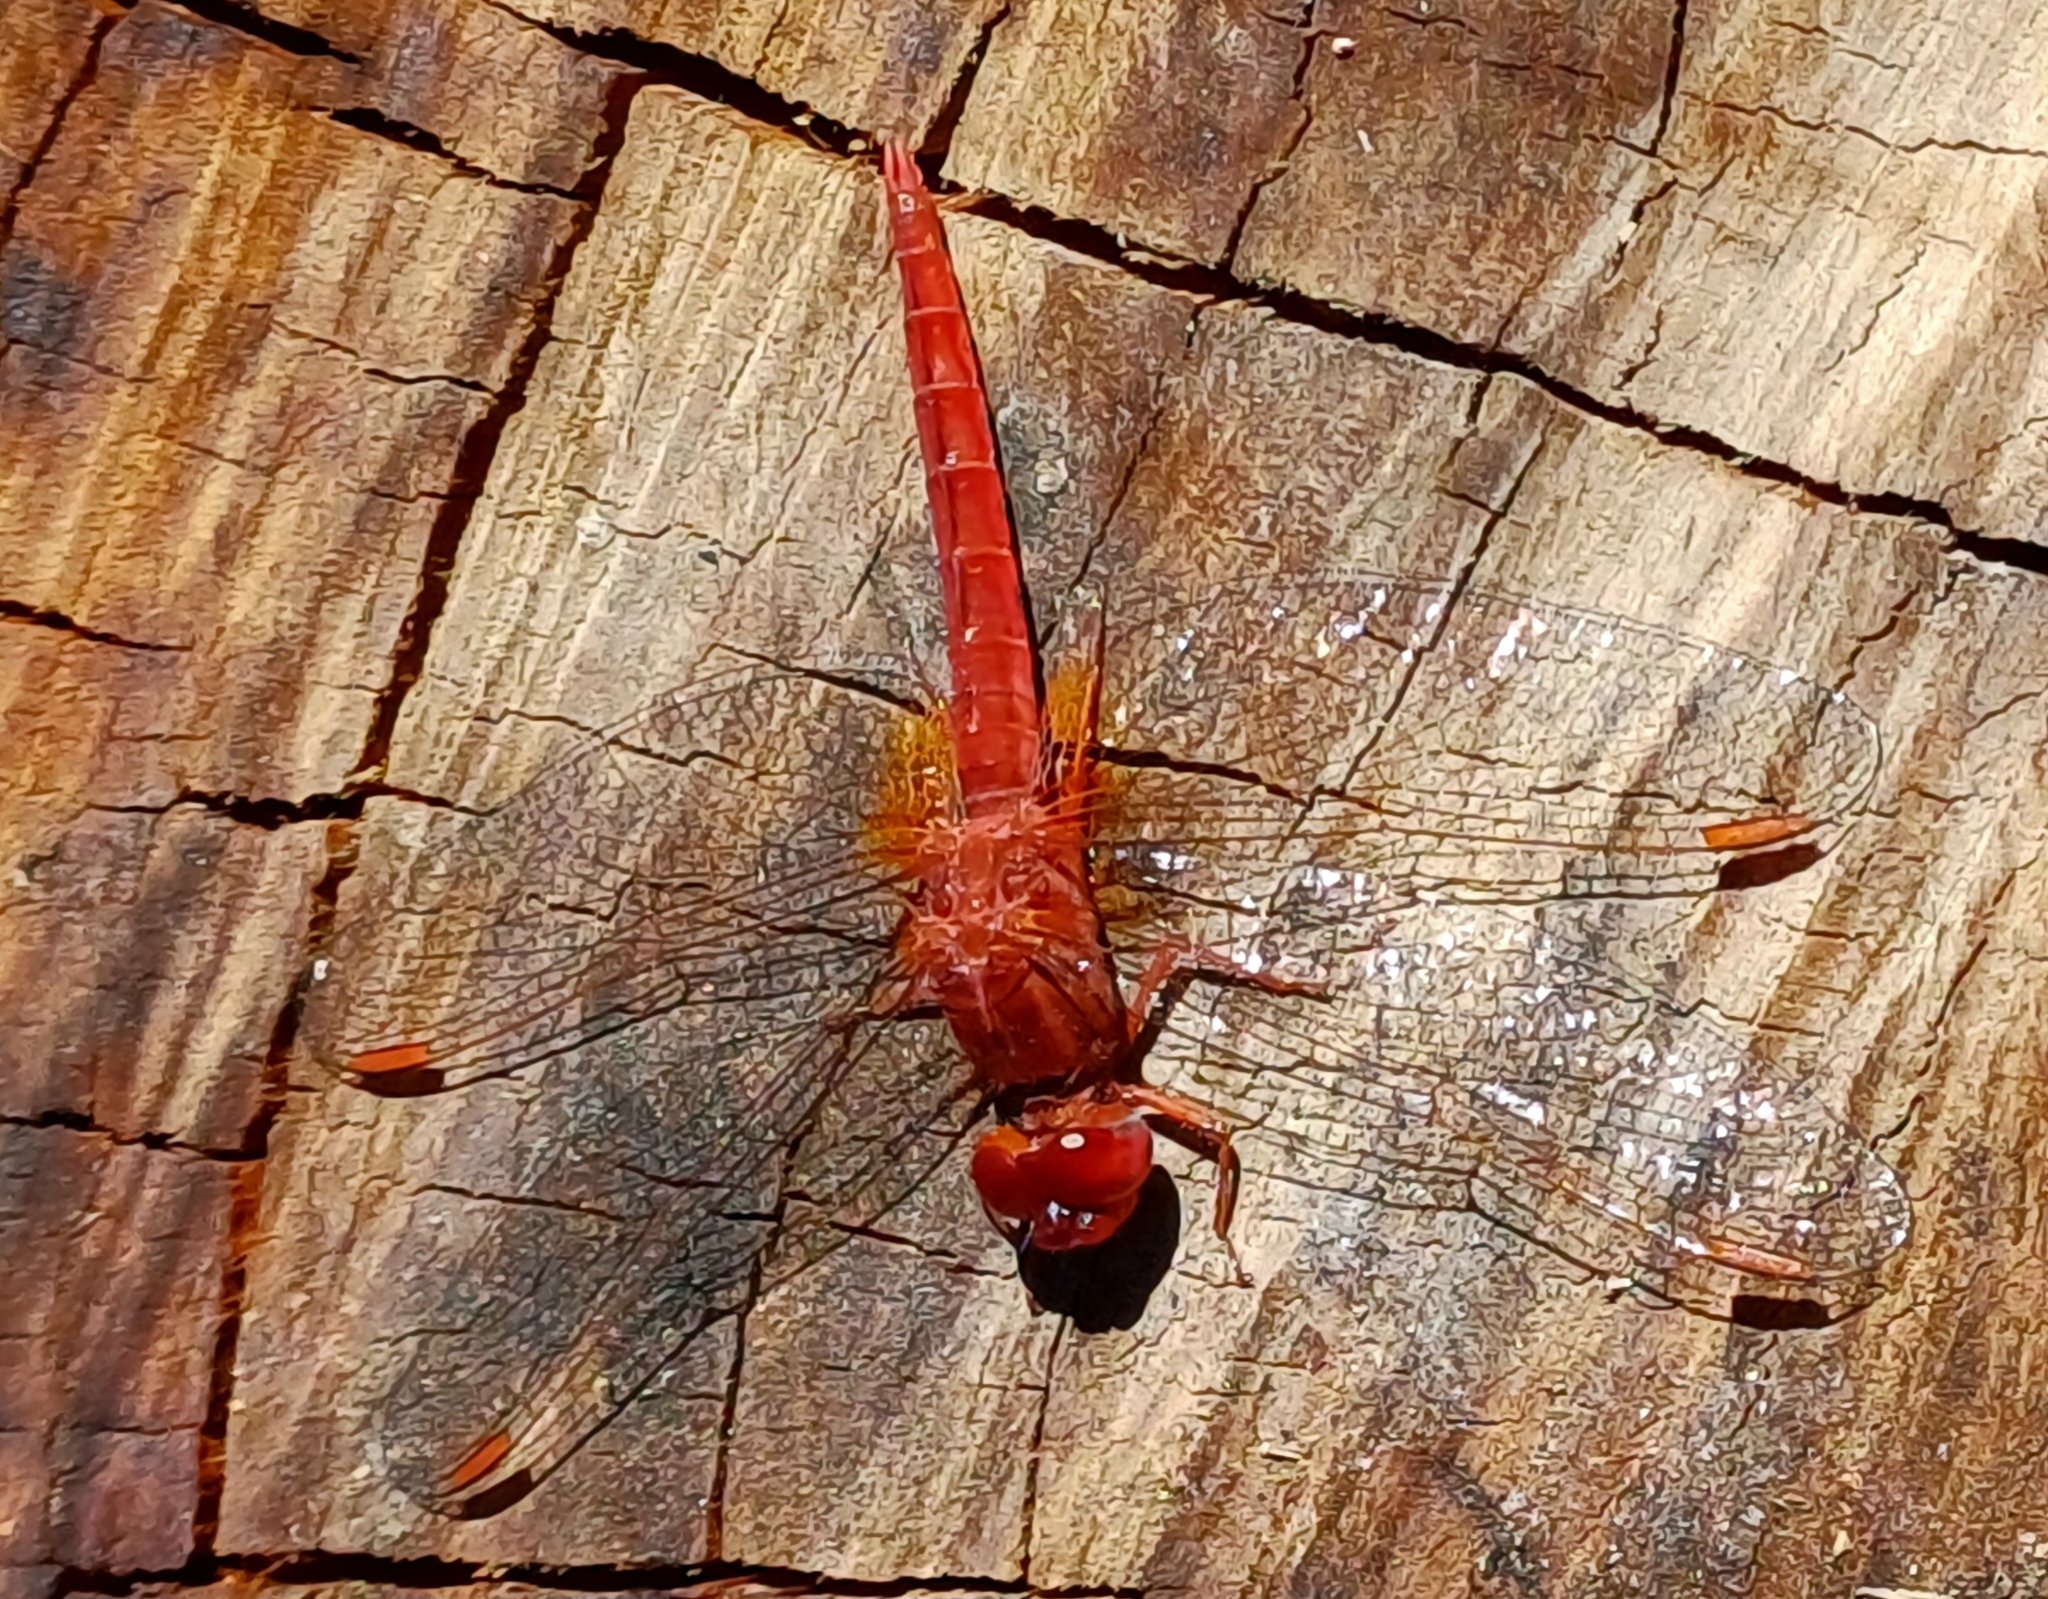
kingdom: Animalia
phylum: Arthropoda
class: Insecta
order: Odonata
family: Libellulidae
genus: Crocothemis
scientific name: Crocothemis sanguinolenta
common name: Little scarlet
